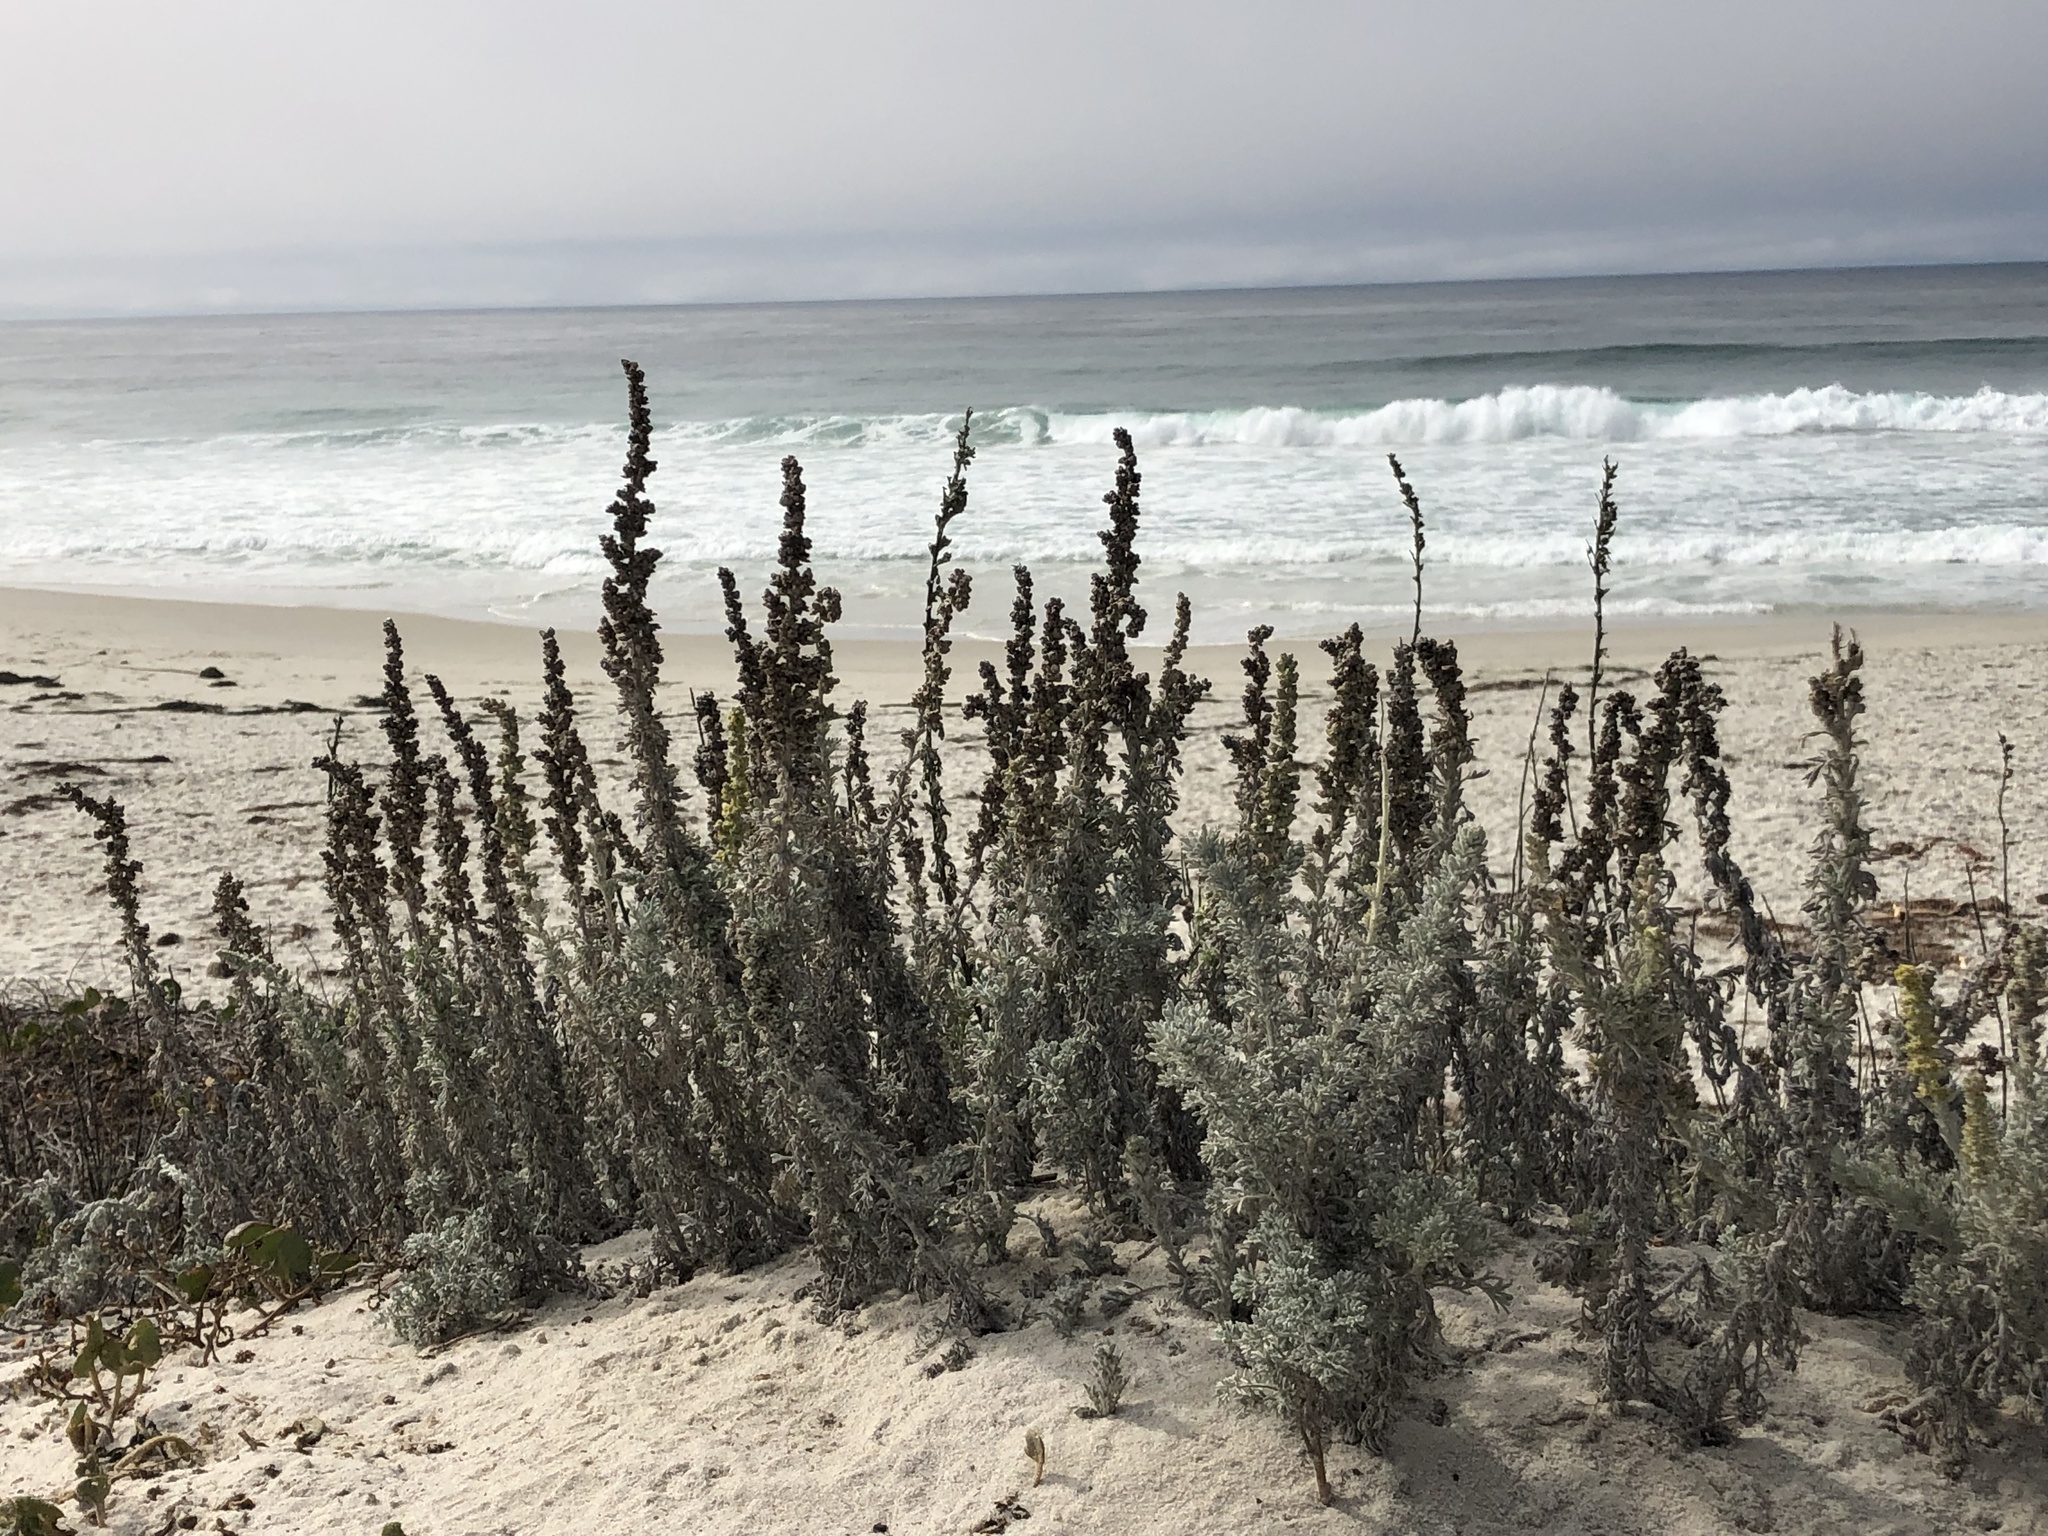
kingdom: Plantae
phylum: Tracheophyta
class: Magnoliopsida
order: Asterales
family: Asteraceae
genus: Artemisia
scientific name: Artemisia pycnocephala
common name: Coastal sagewort
